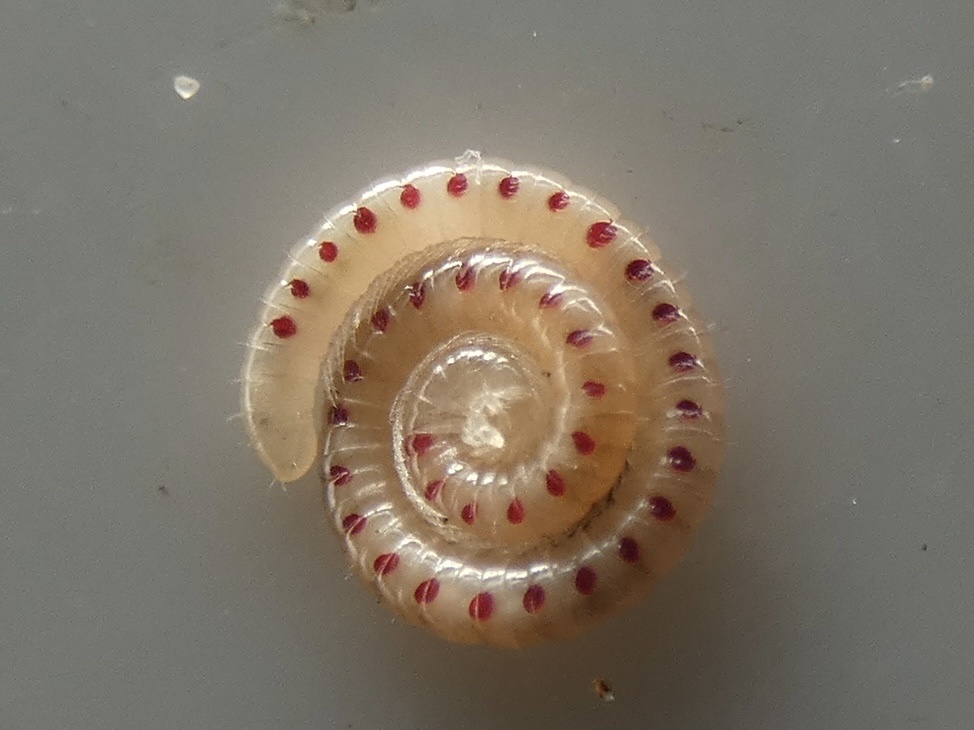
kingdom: Animalia
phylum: Arthropoda
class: Diplopoda
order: Julida
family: Blaniulidae
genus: Blaniulus
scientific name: Blaniulus guttulatus
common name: Spotted snake millipede
